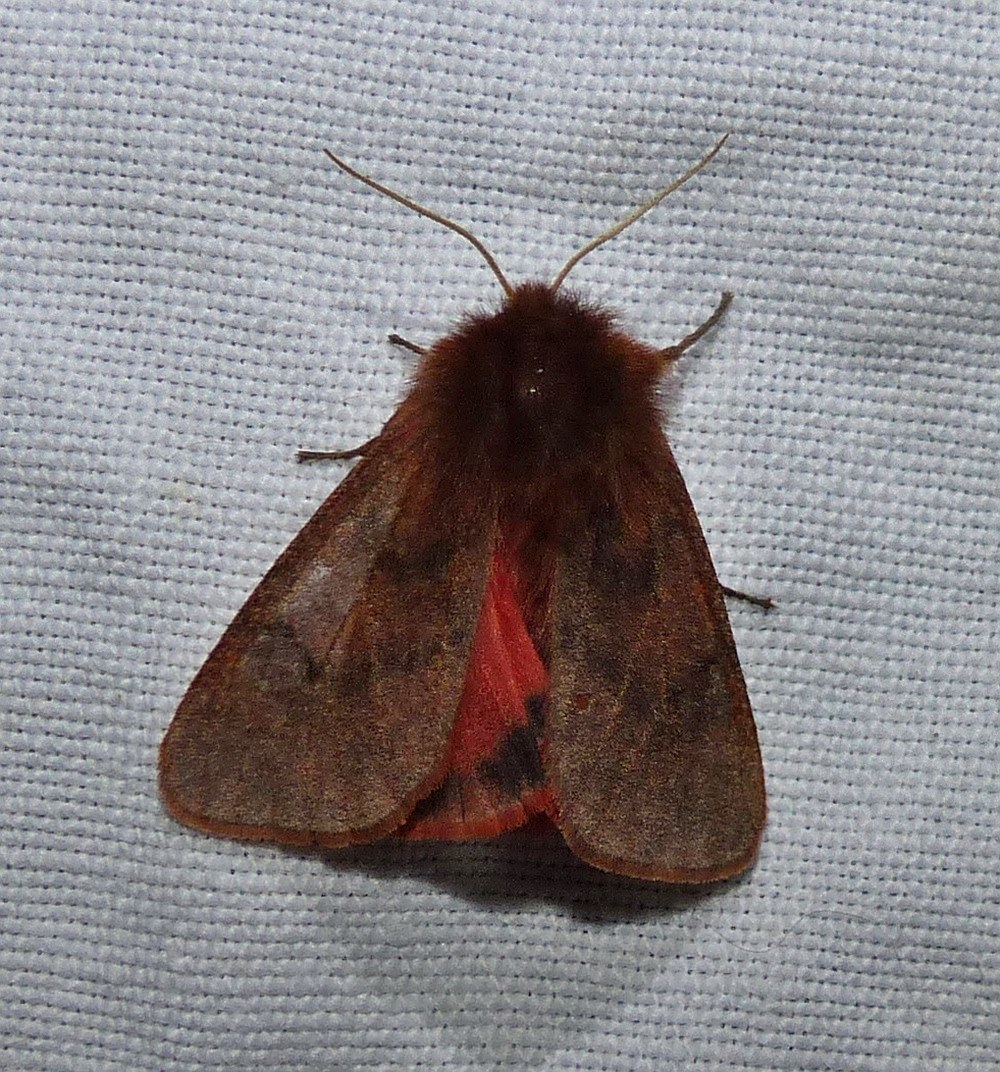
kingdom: Animalia
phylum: Arthropoda
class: Insecta
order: Lepidoptera
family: Erebidae
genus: Phragmatobia
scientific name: Phragmatobia assimilans
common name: Large ruby tiger moth
